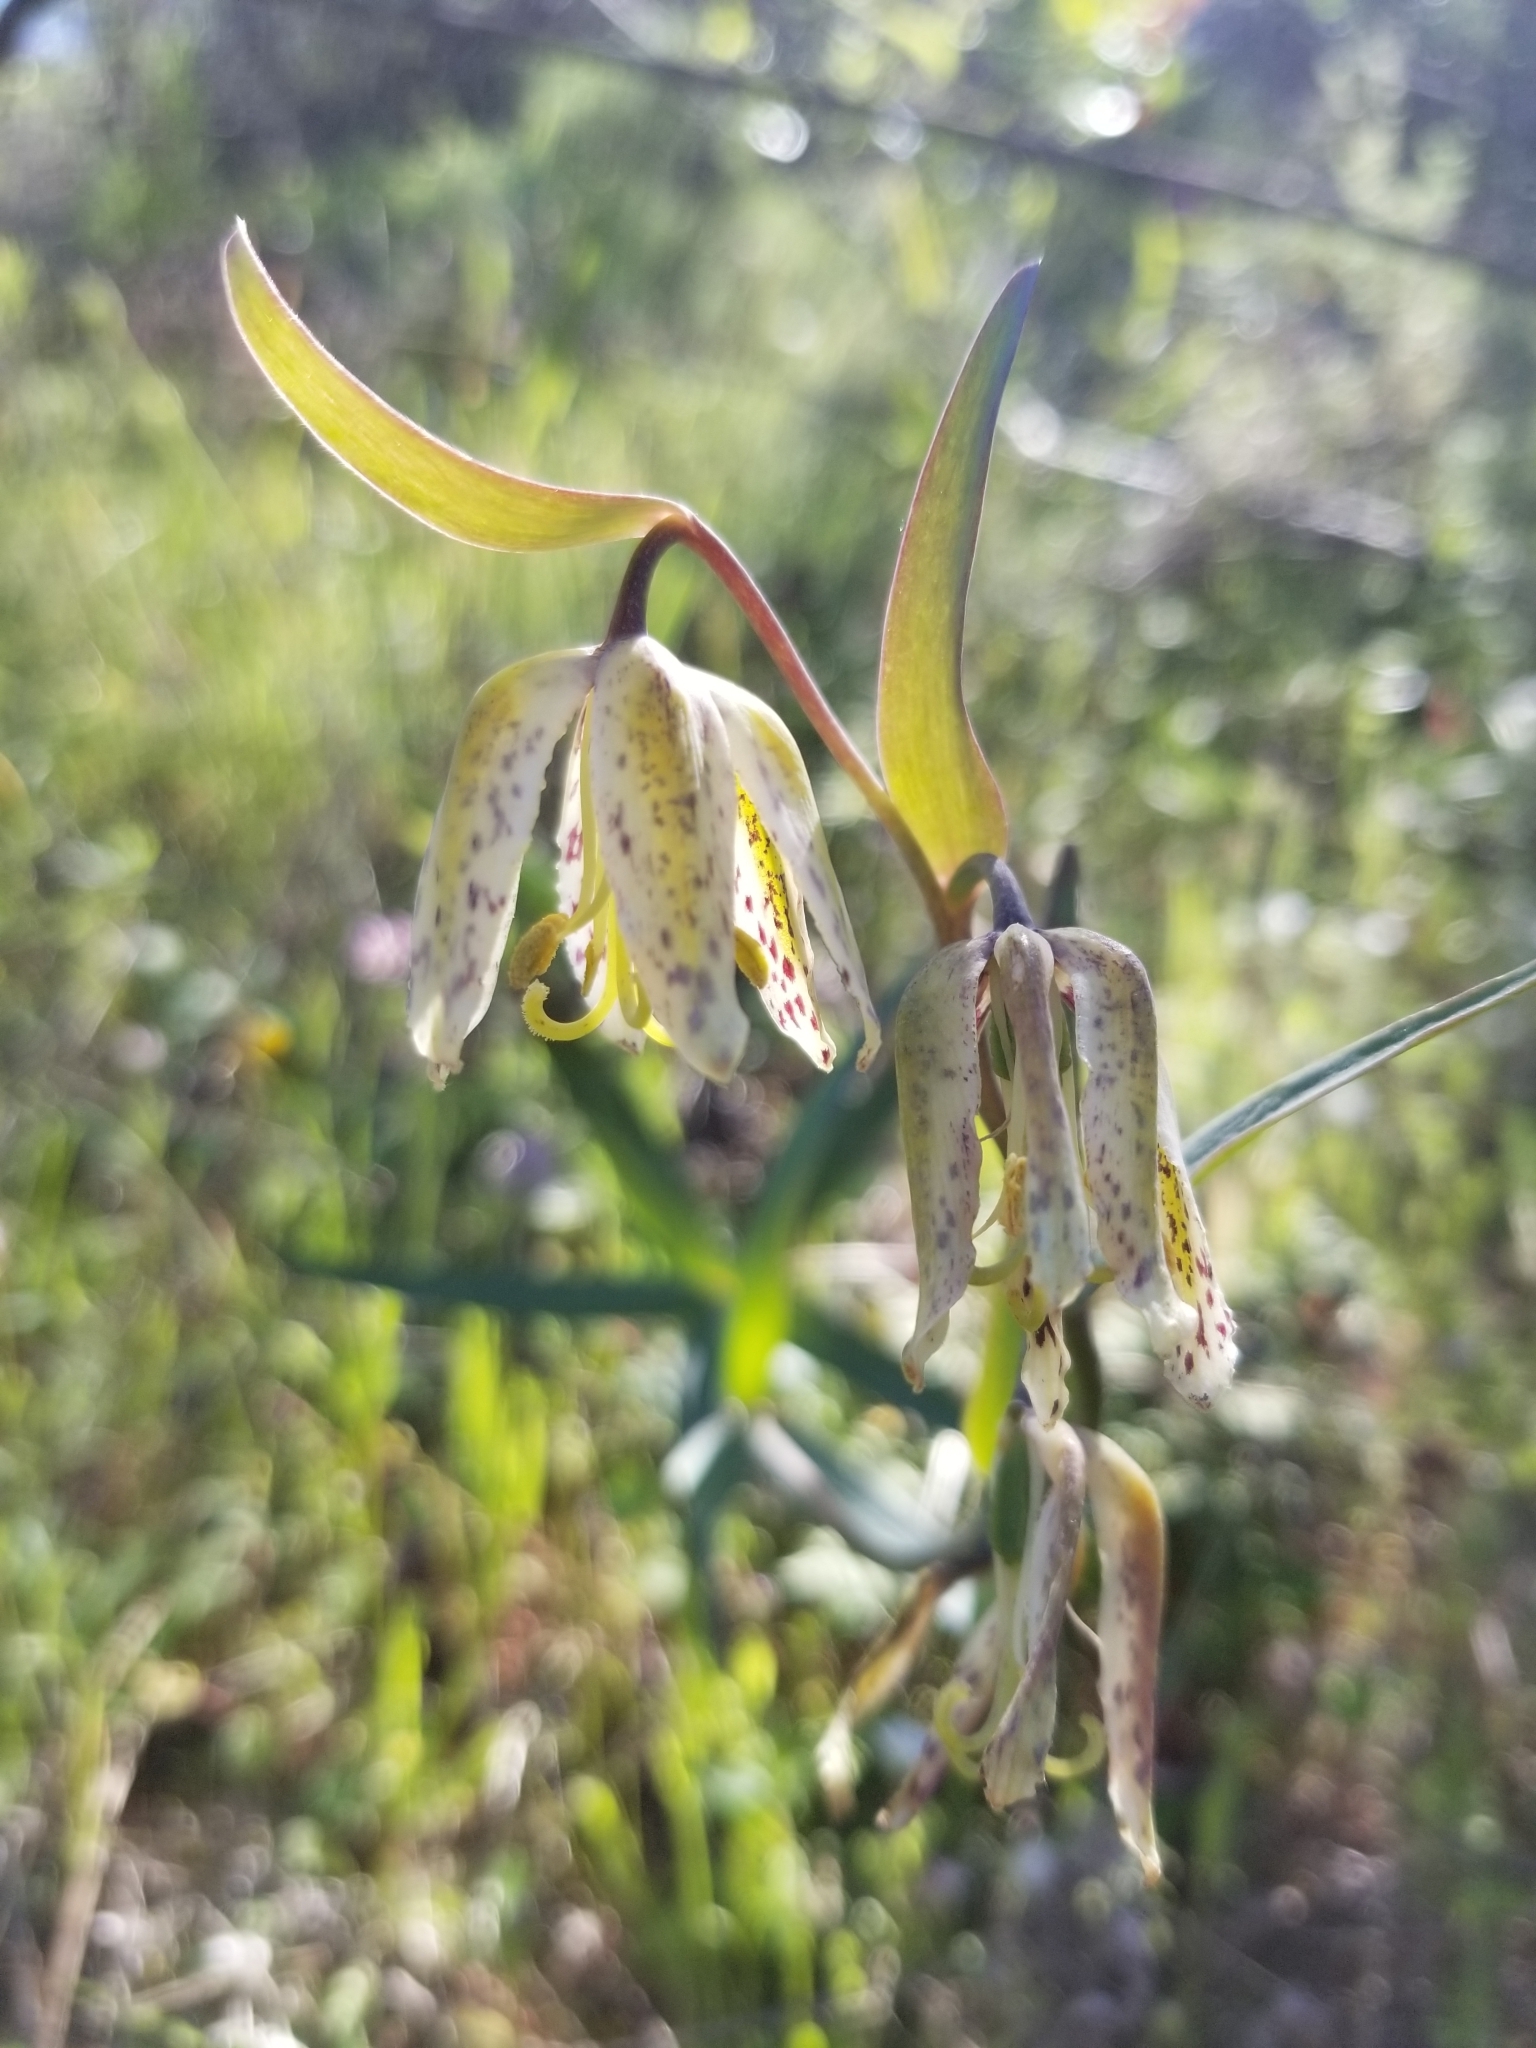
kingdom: Plantae
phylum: Tracheophyta
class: Liliopsida
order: Liliales
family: Liliaceae
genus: Fritillaria
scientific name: Fritillaria affinis
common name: Ojai fritillary
